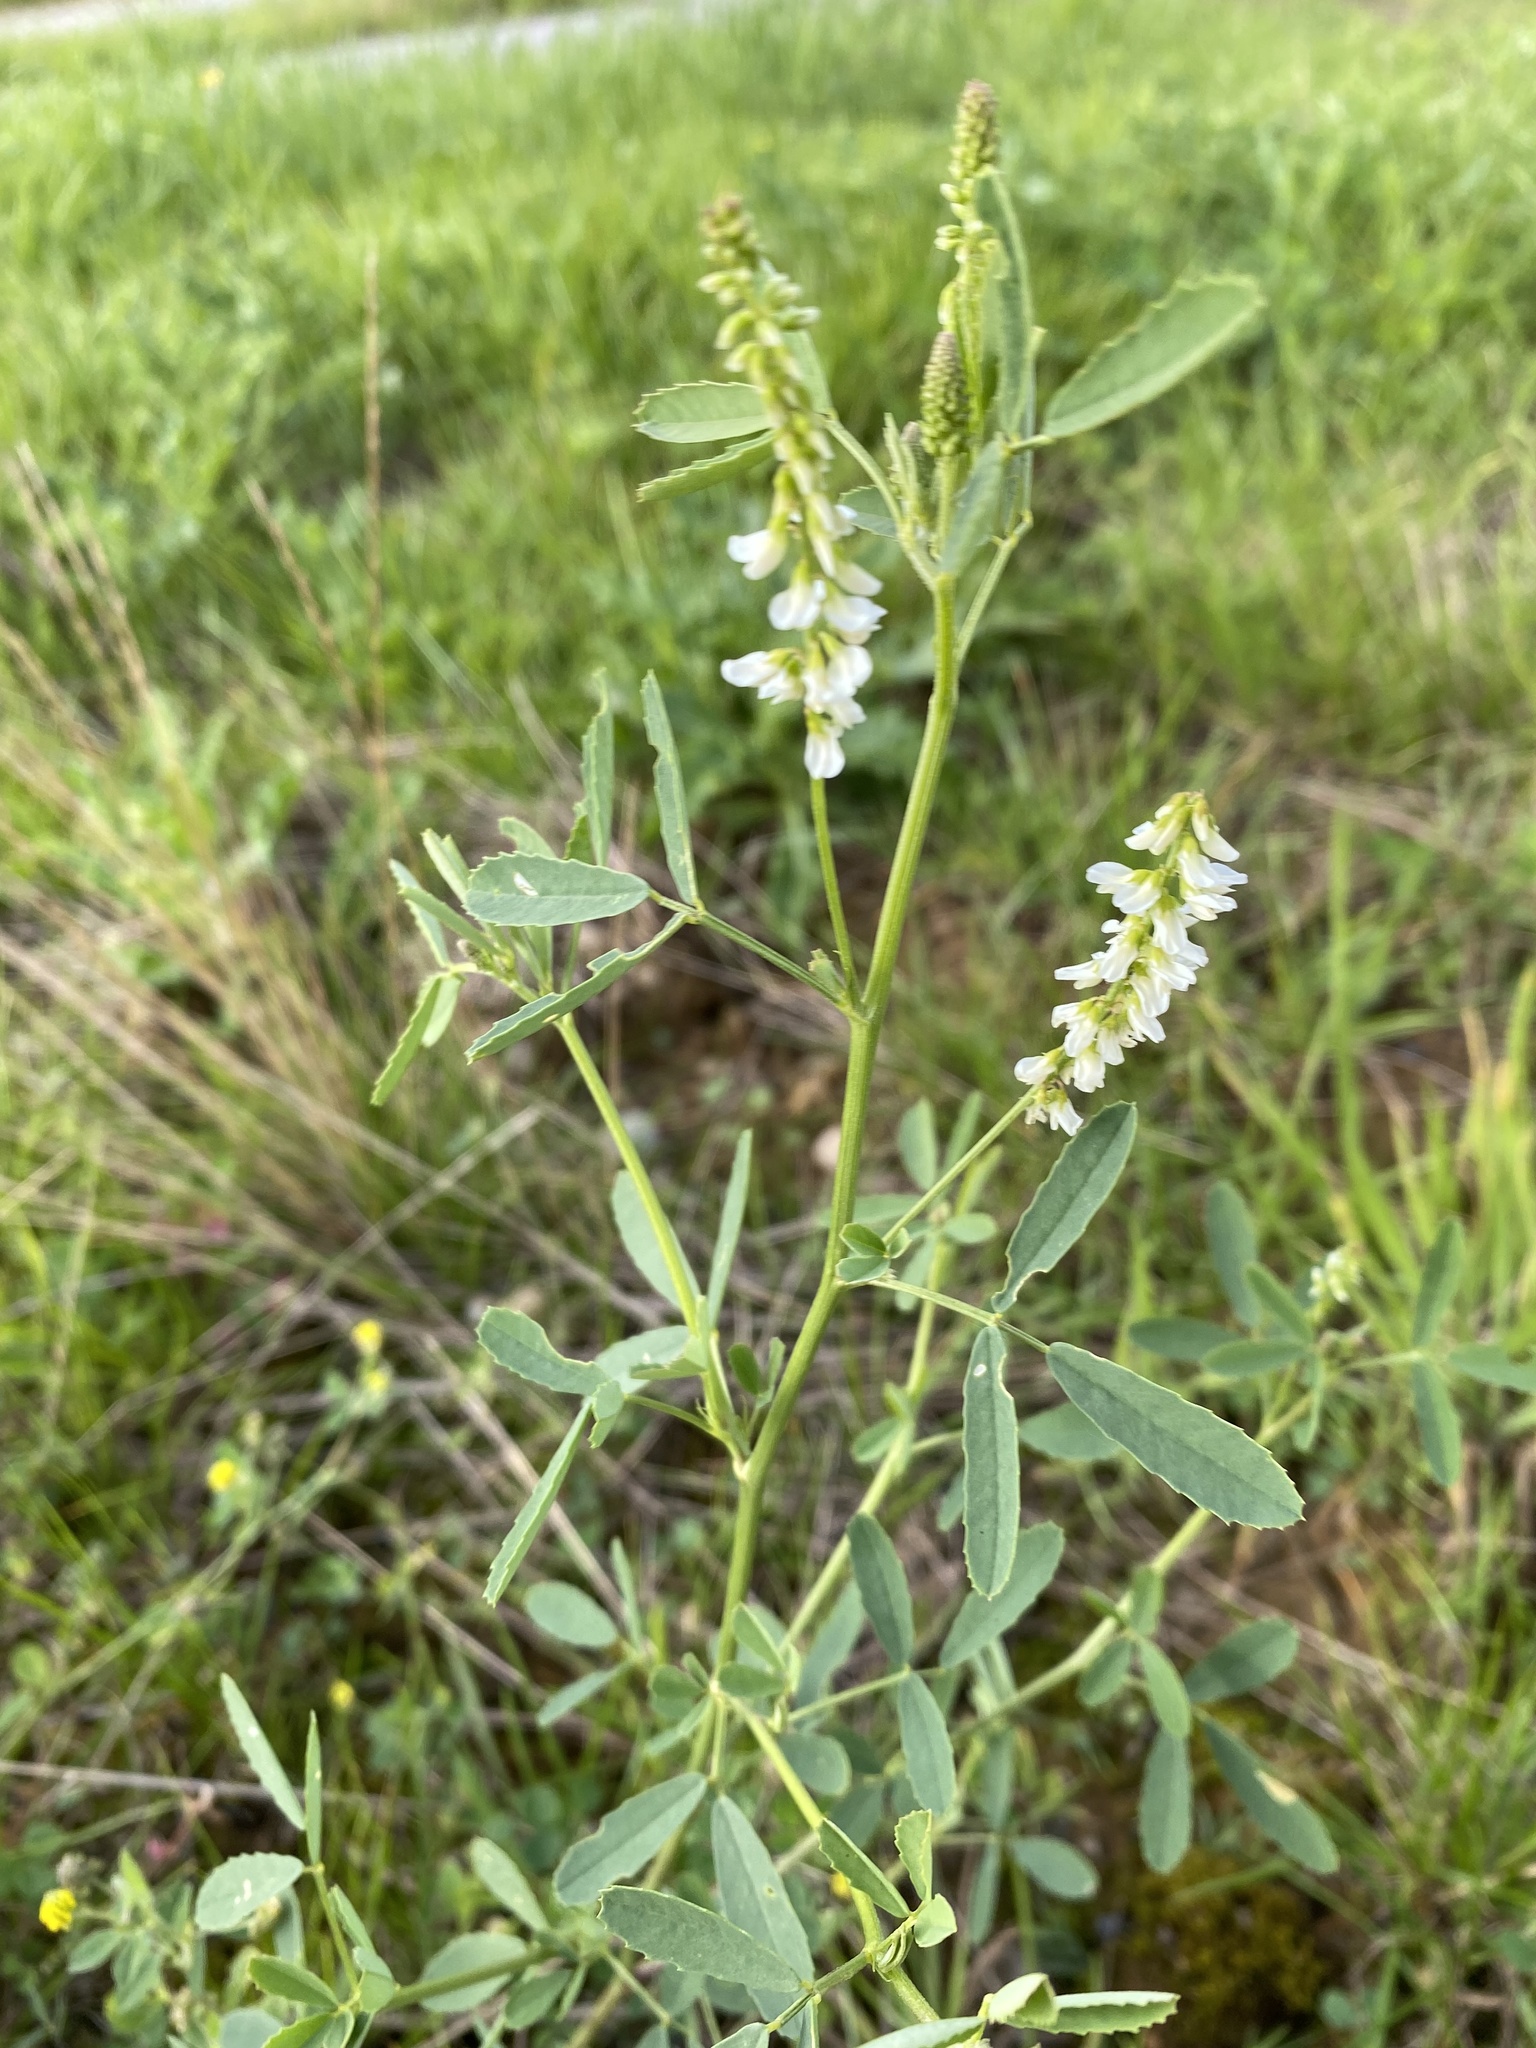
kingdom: Plantae
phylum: Tracheophyta
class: Magnoliopsida
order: Fabales
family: Fabaceae
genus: Melilotus
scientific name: Melilotus albus
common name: White melilot
